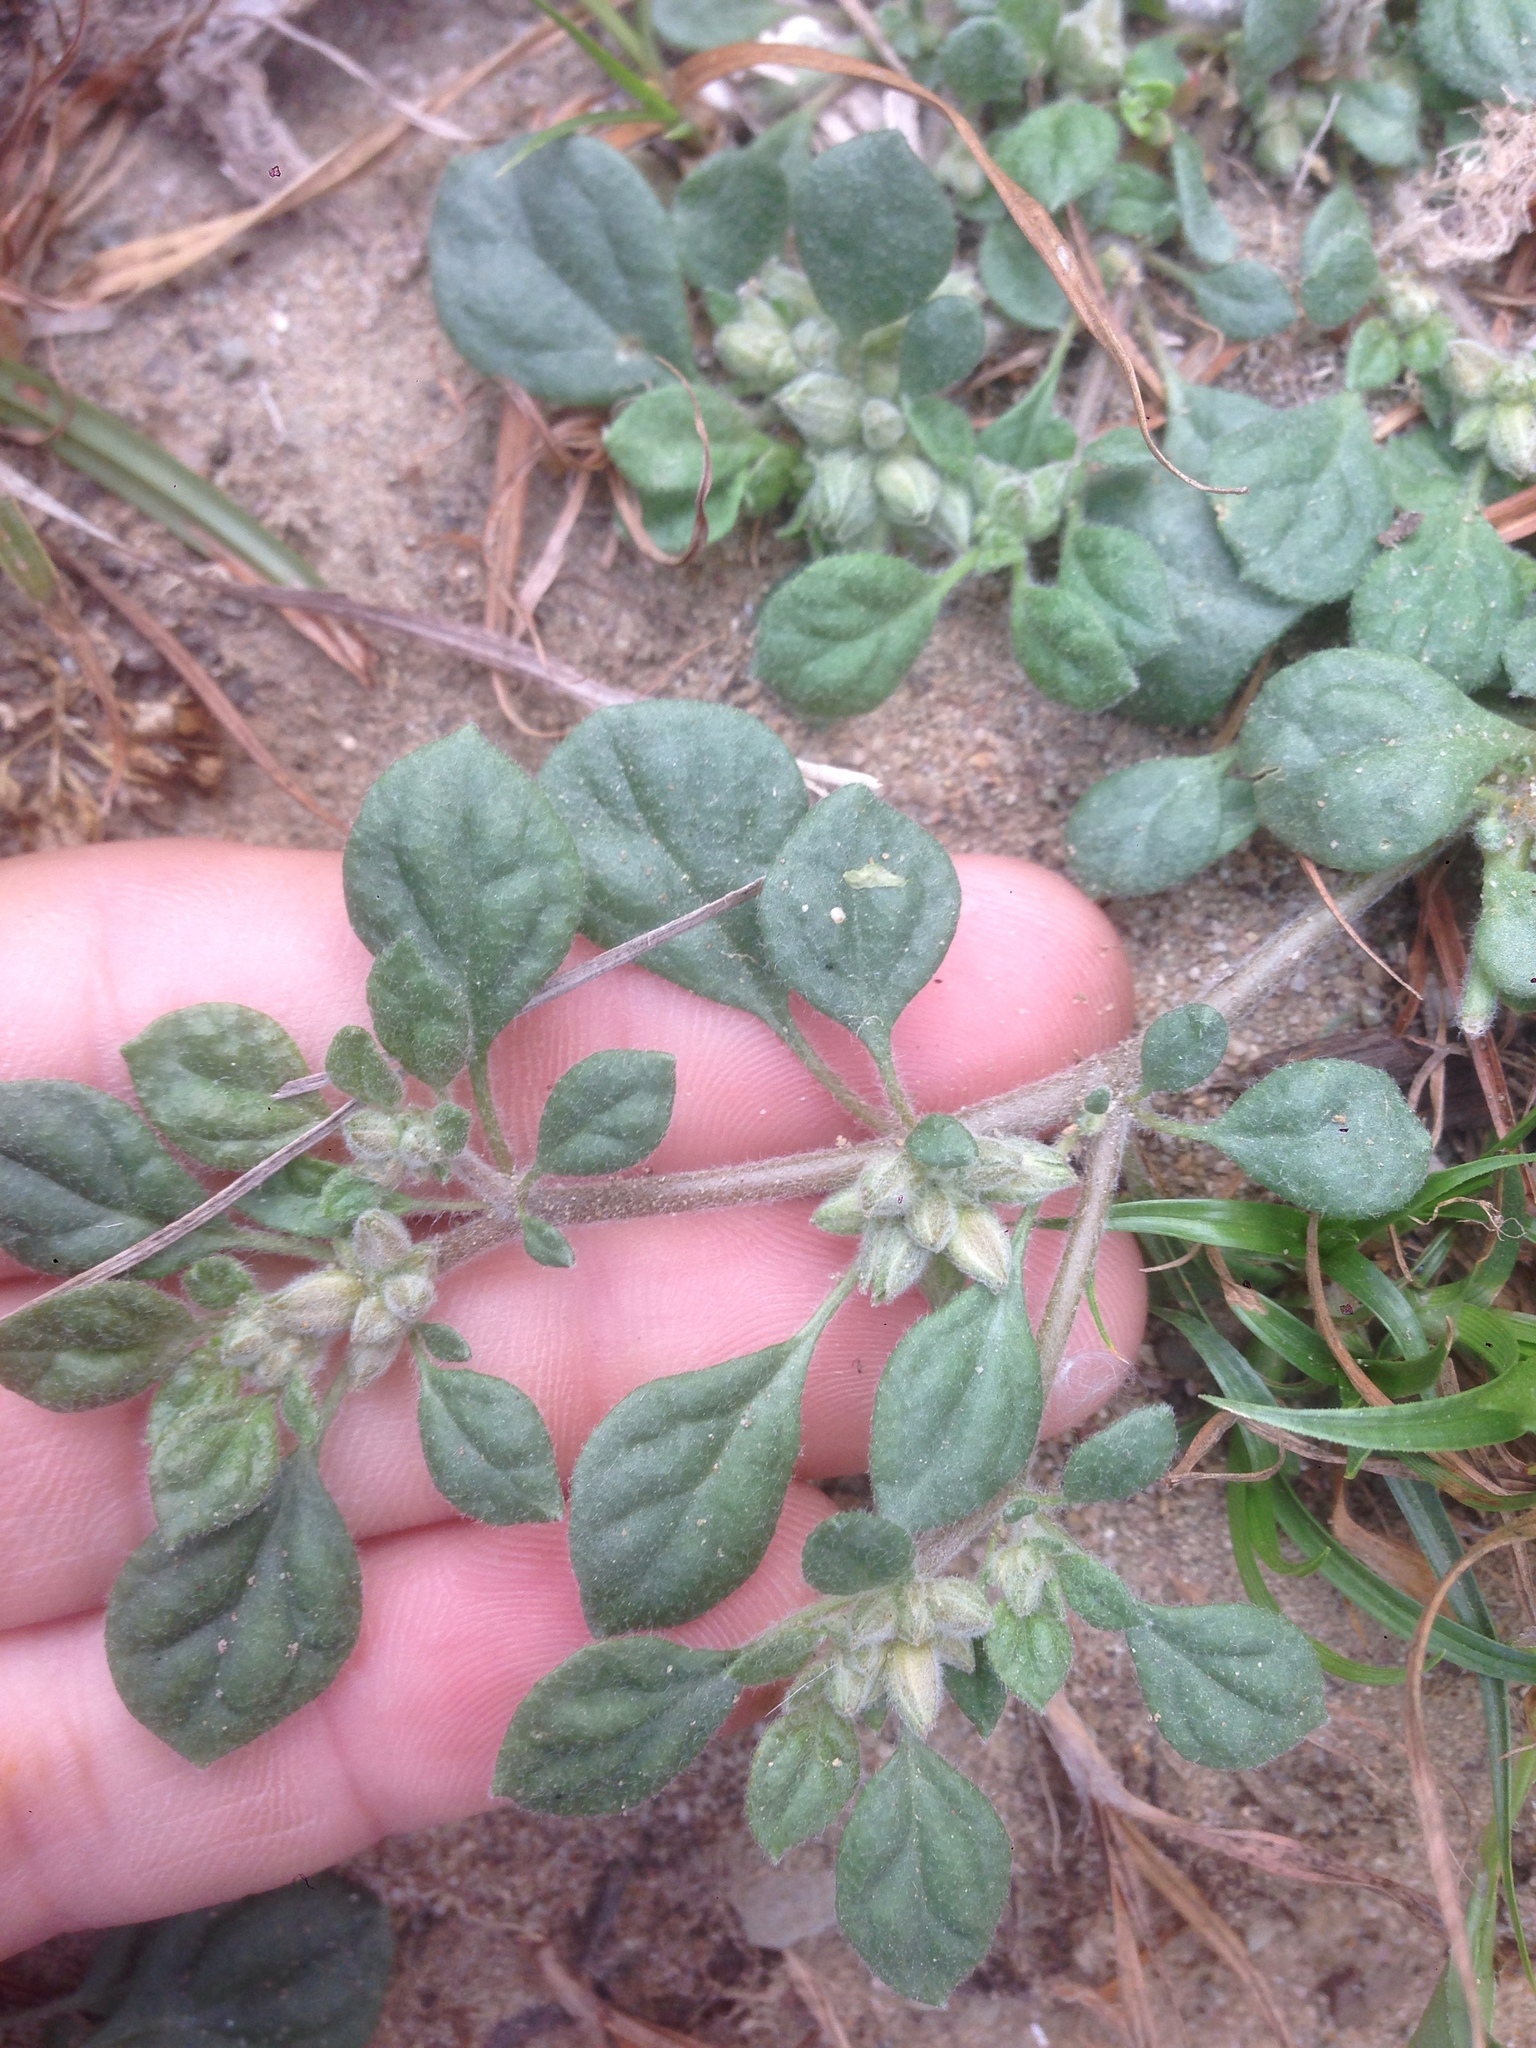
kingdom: Plantae
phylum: Tracheophyta
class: Magnoliopsida
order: Caryophyllales
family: Molluginaceae
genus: Glinus
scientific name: Glinus lotoides
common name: Lotus sweetjuice
